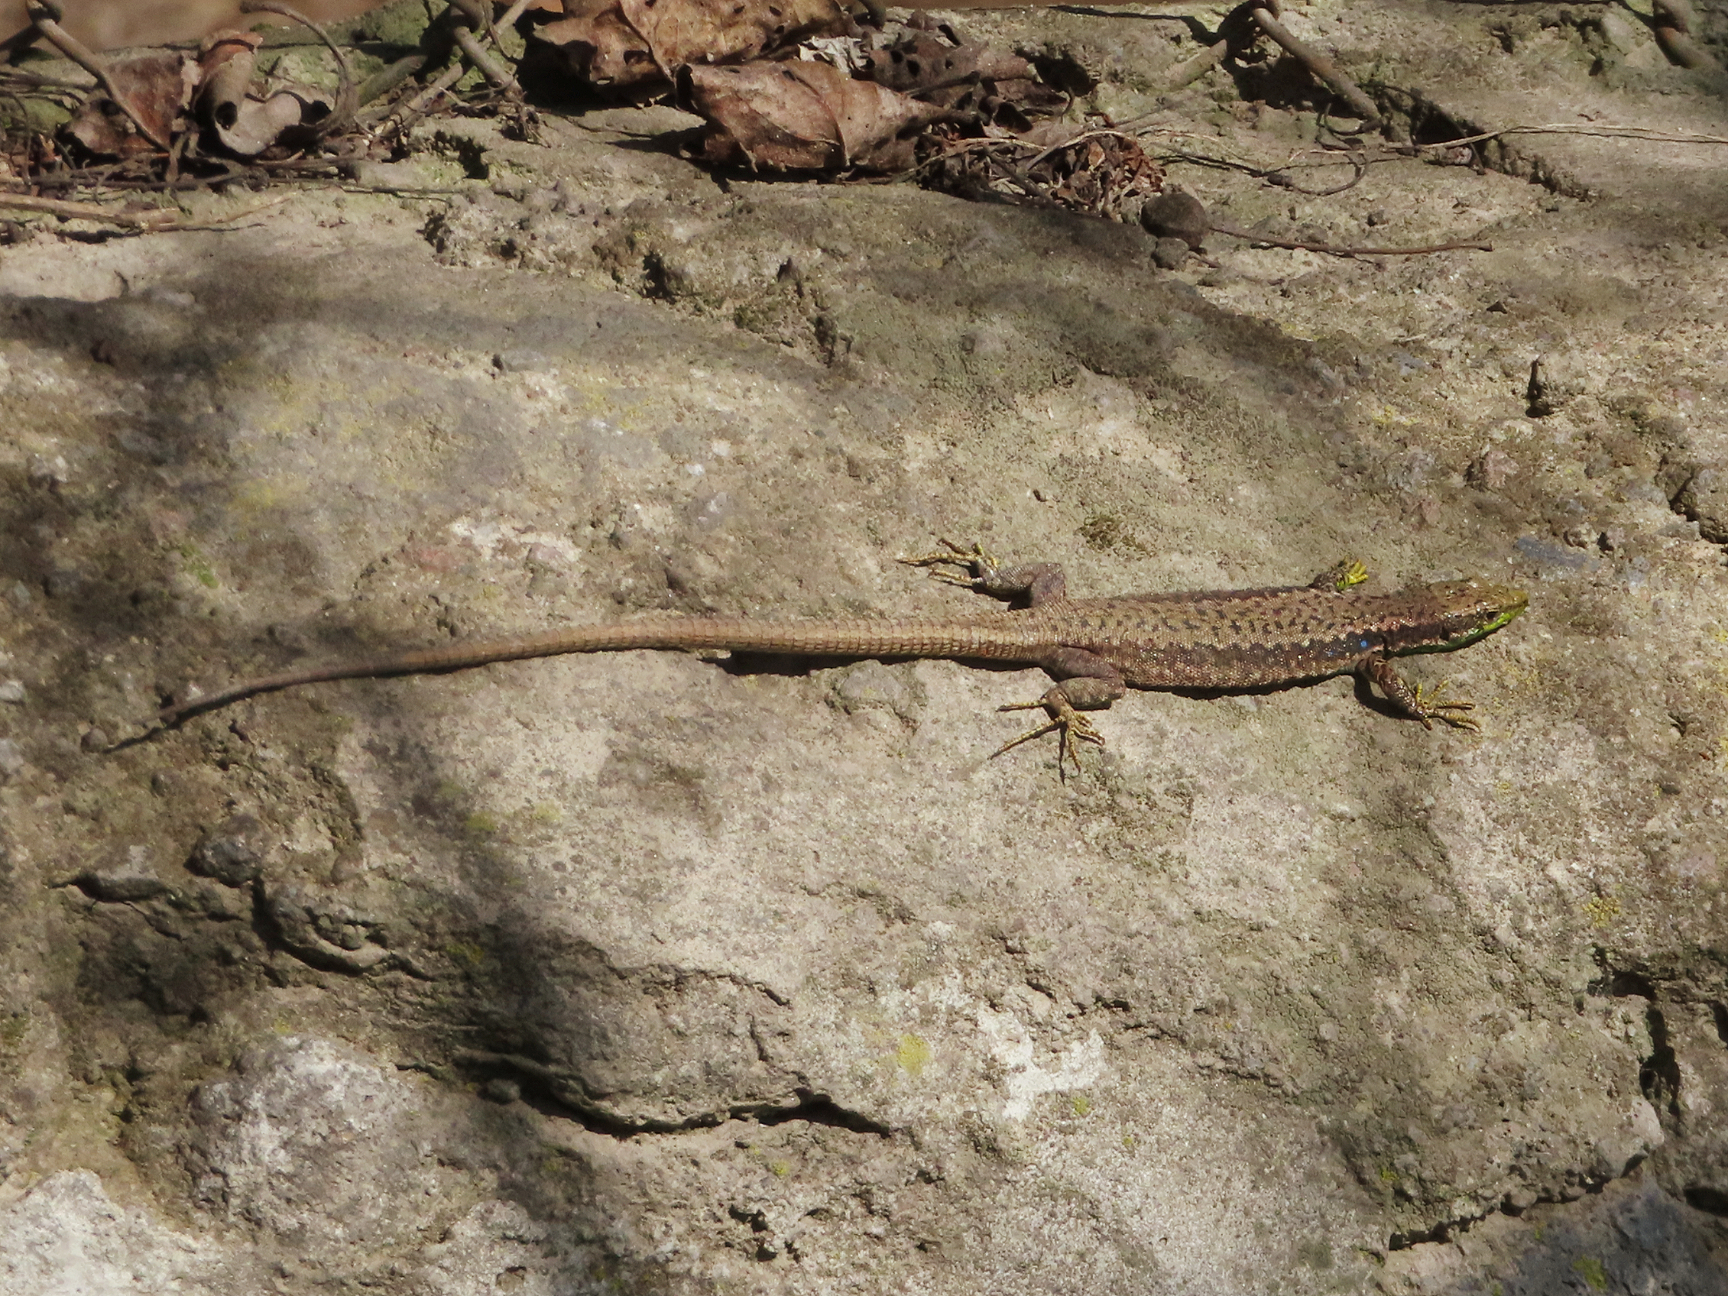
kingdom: Animalia
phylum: Chordata
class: Squamata
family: Lacertidae
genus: Darevskia
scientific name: Darevskia raddei
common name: Radde's lizard
